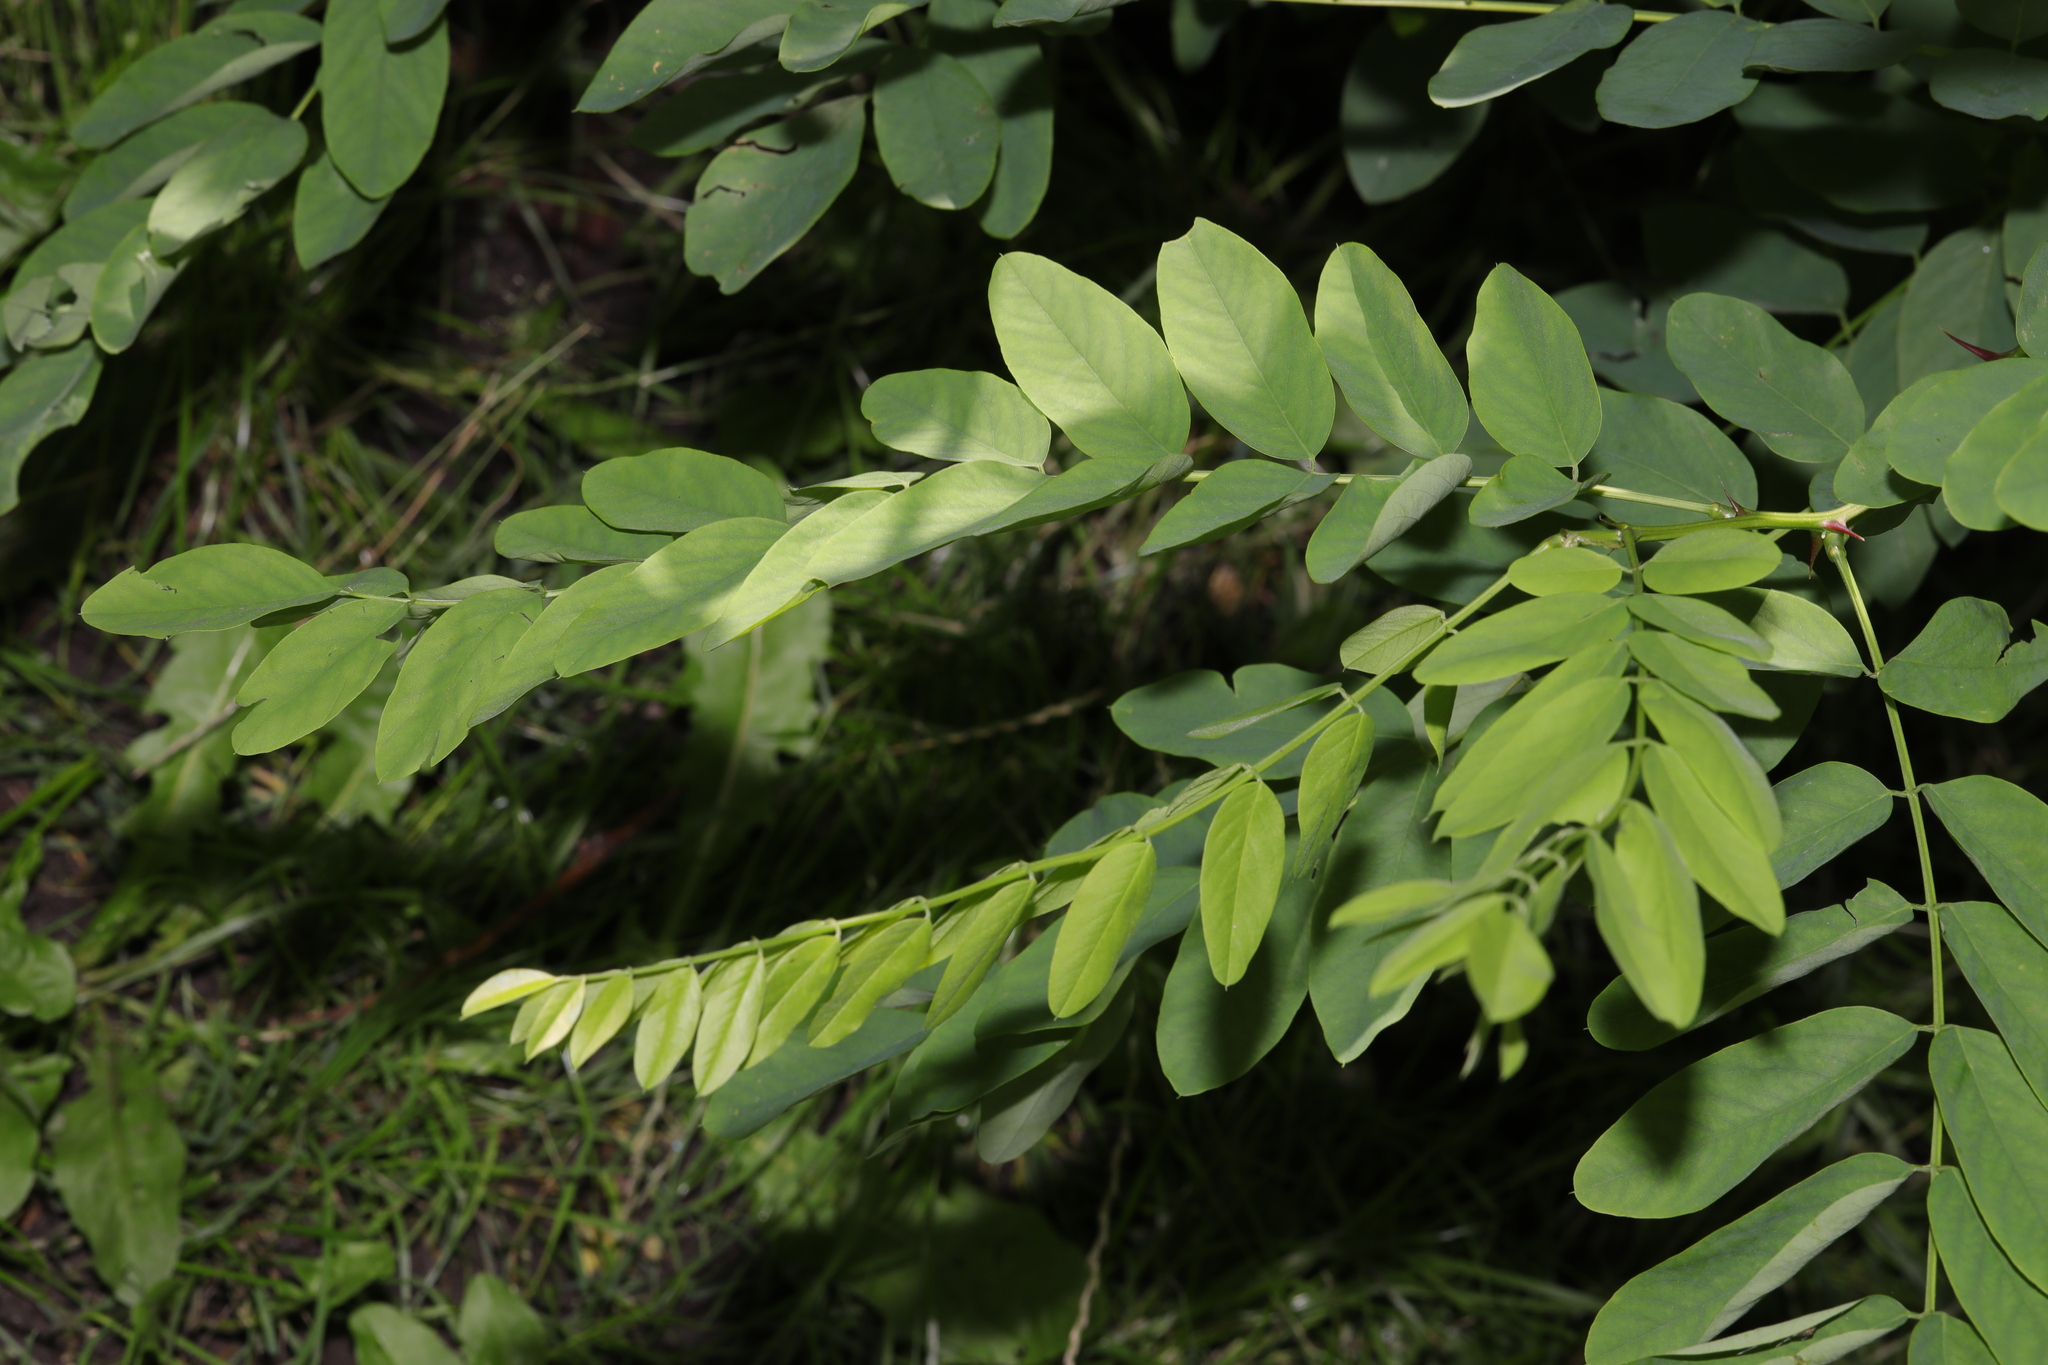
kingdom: Plantae
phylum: Tracheophyta
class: Magnoliopsida
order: Fabales
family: Fabaceae
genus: Robinia
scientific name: Robinia pseudoacacia
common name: Black locust
